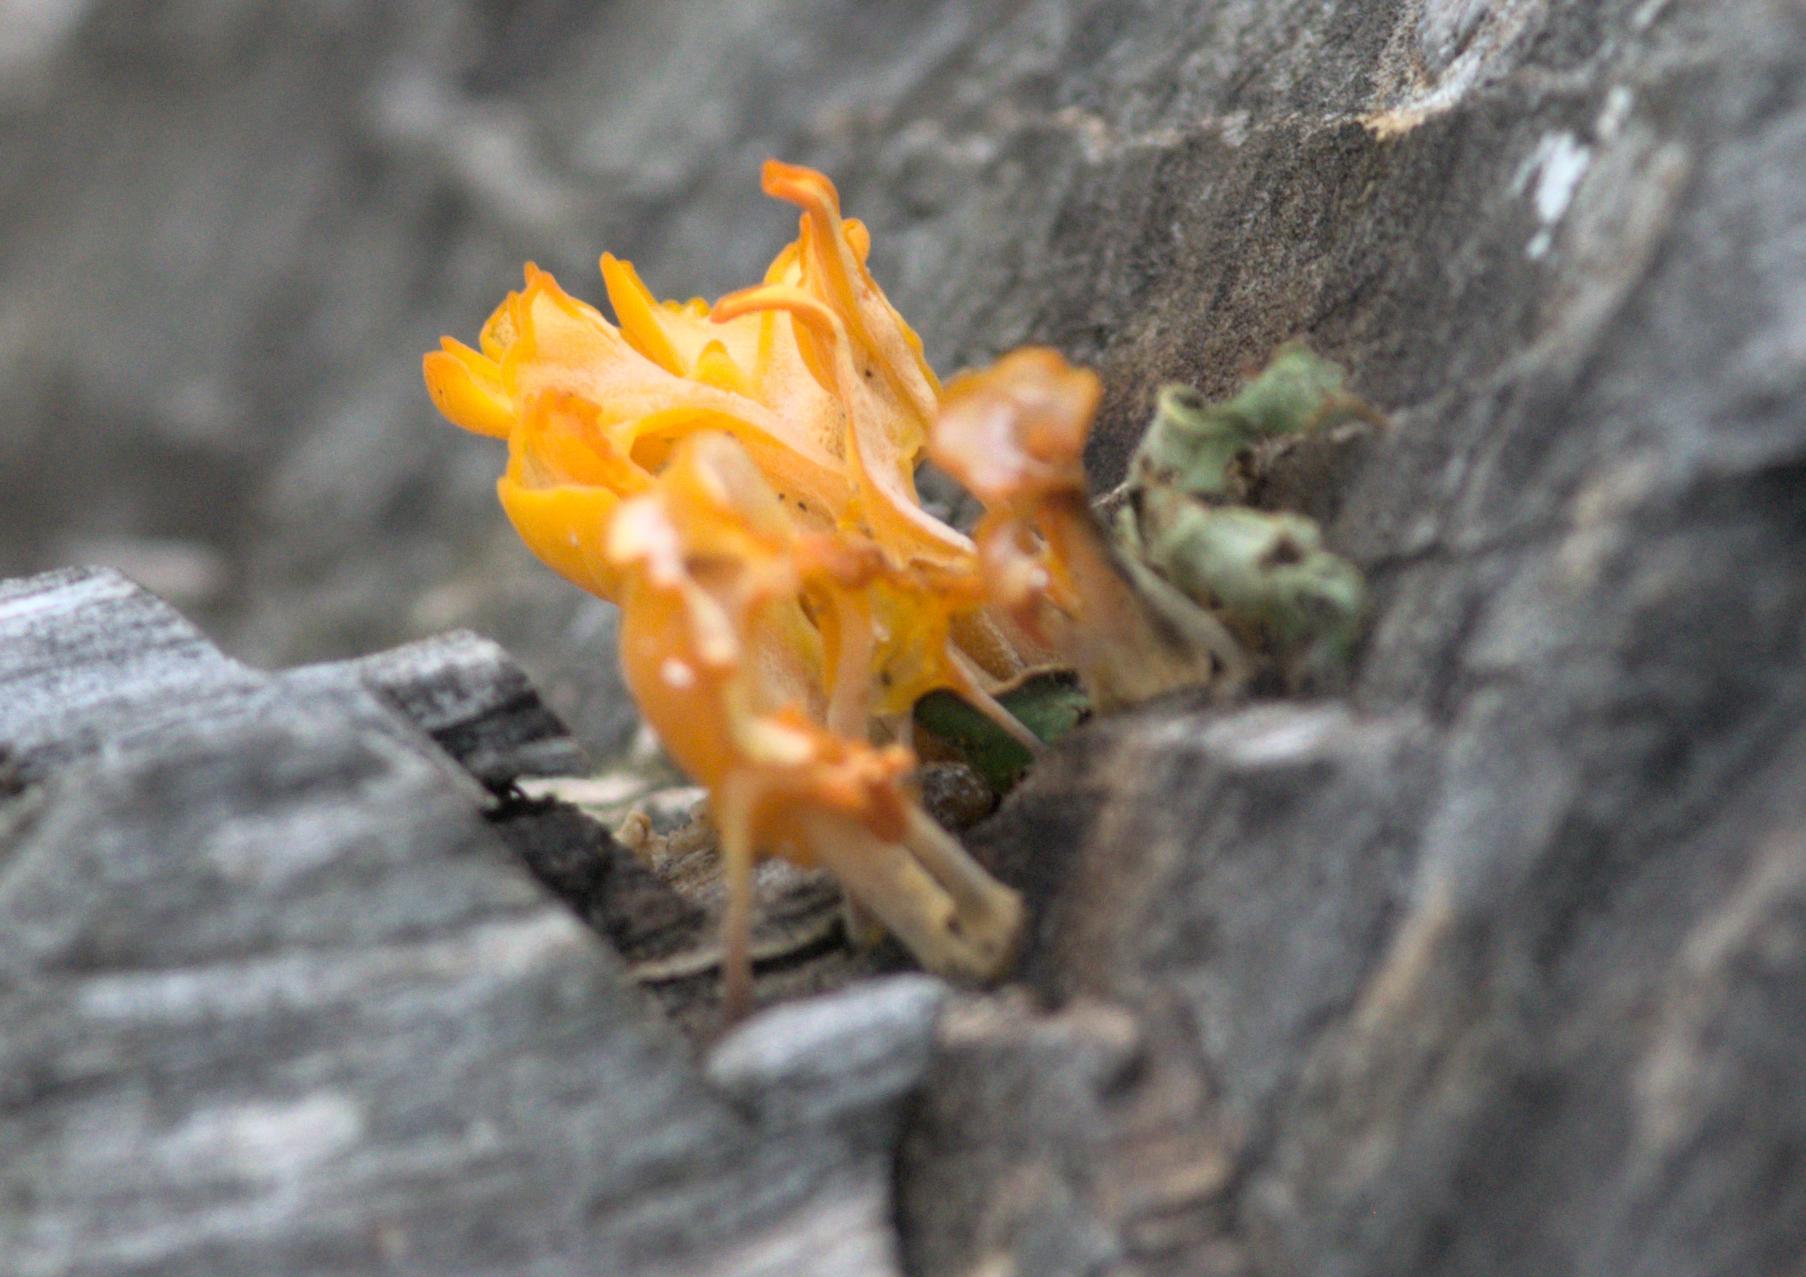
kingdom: Fungi
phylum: Basidiomycota
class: Dacrymycetes
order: Dacrymycetales
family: Dacrymycetaceae
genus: Dacrymyces
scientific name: Dacrymyces spathularius
